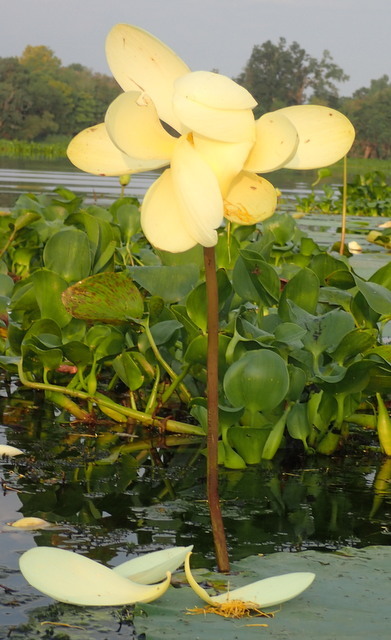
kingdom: Plantae
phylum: Tracheophyta
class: Magnoliopsida
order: Proteales
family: Nelumbonaceae
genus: Nelumbo
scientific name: Nelumbo lutea
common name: American lotus
